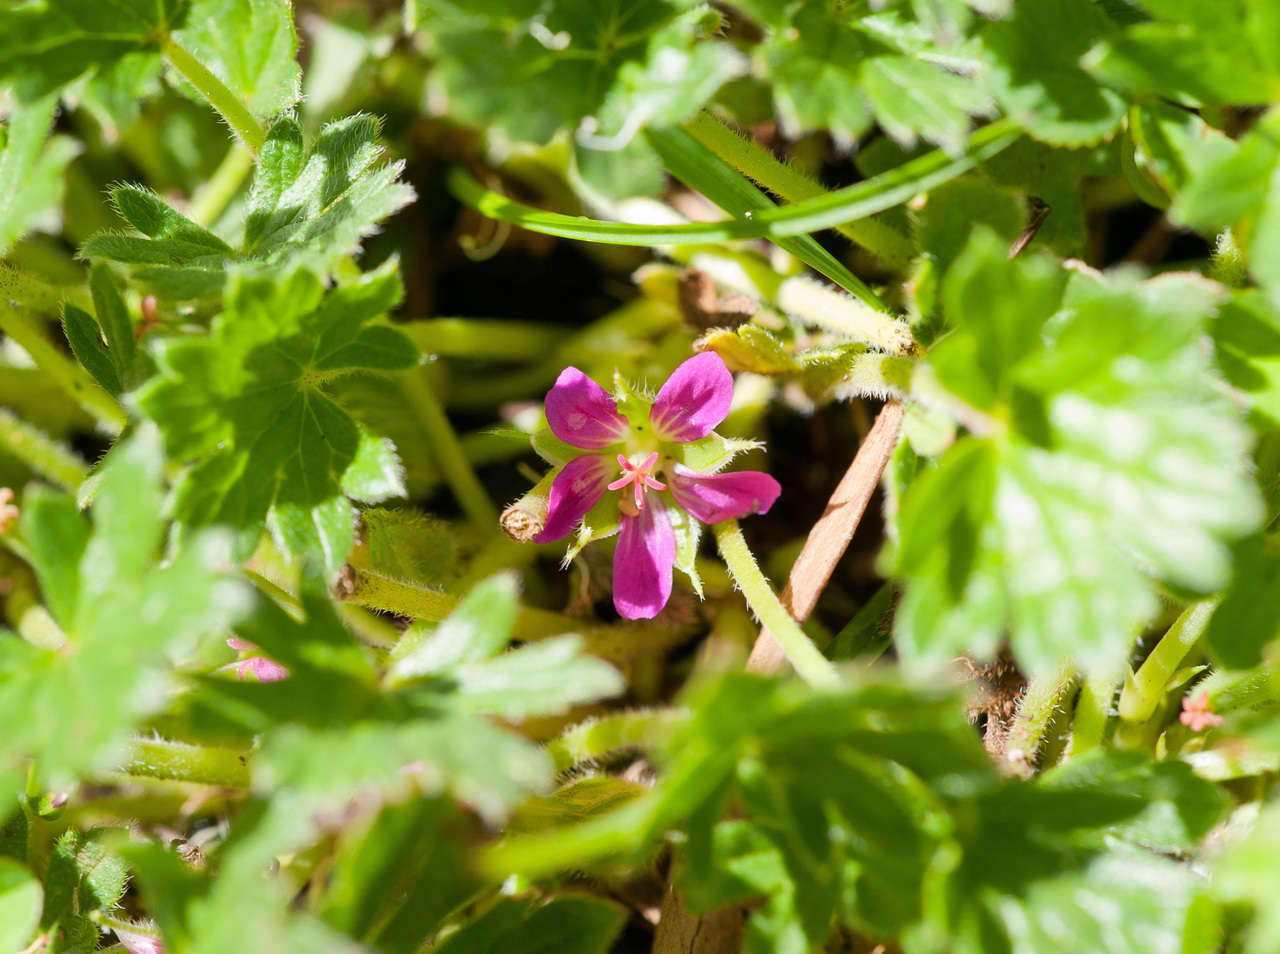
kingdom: Plantae
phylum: Tracheophyta
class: Magnoliopsida
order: Geraniales
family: Geraniaceae
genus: Geranium
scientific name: Geranium antrorsum
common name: Rosetted crane's-bill
